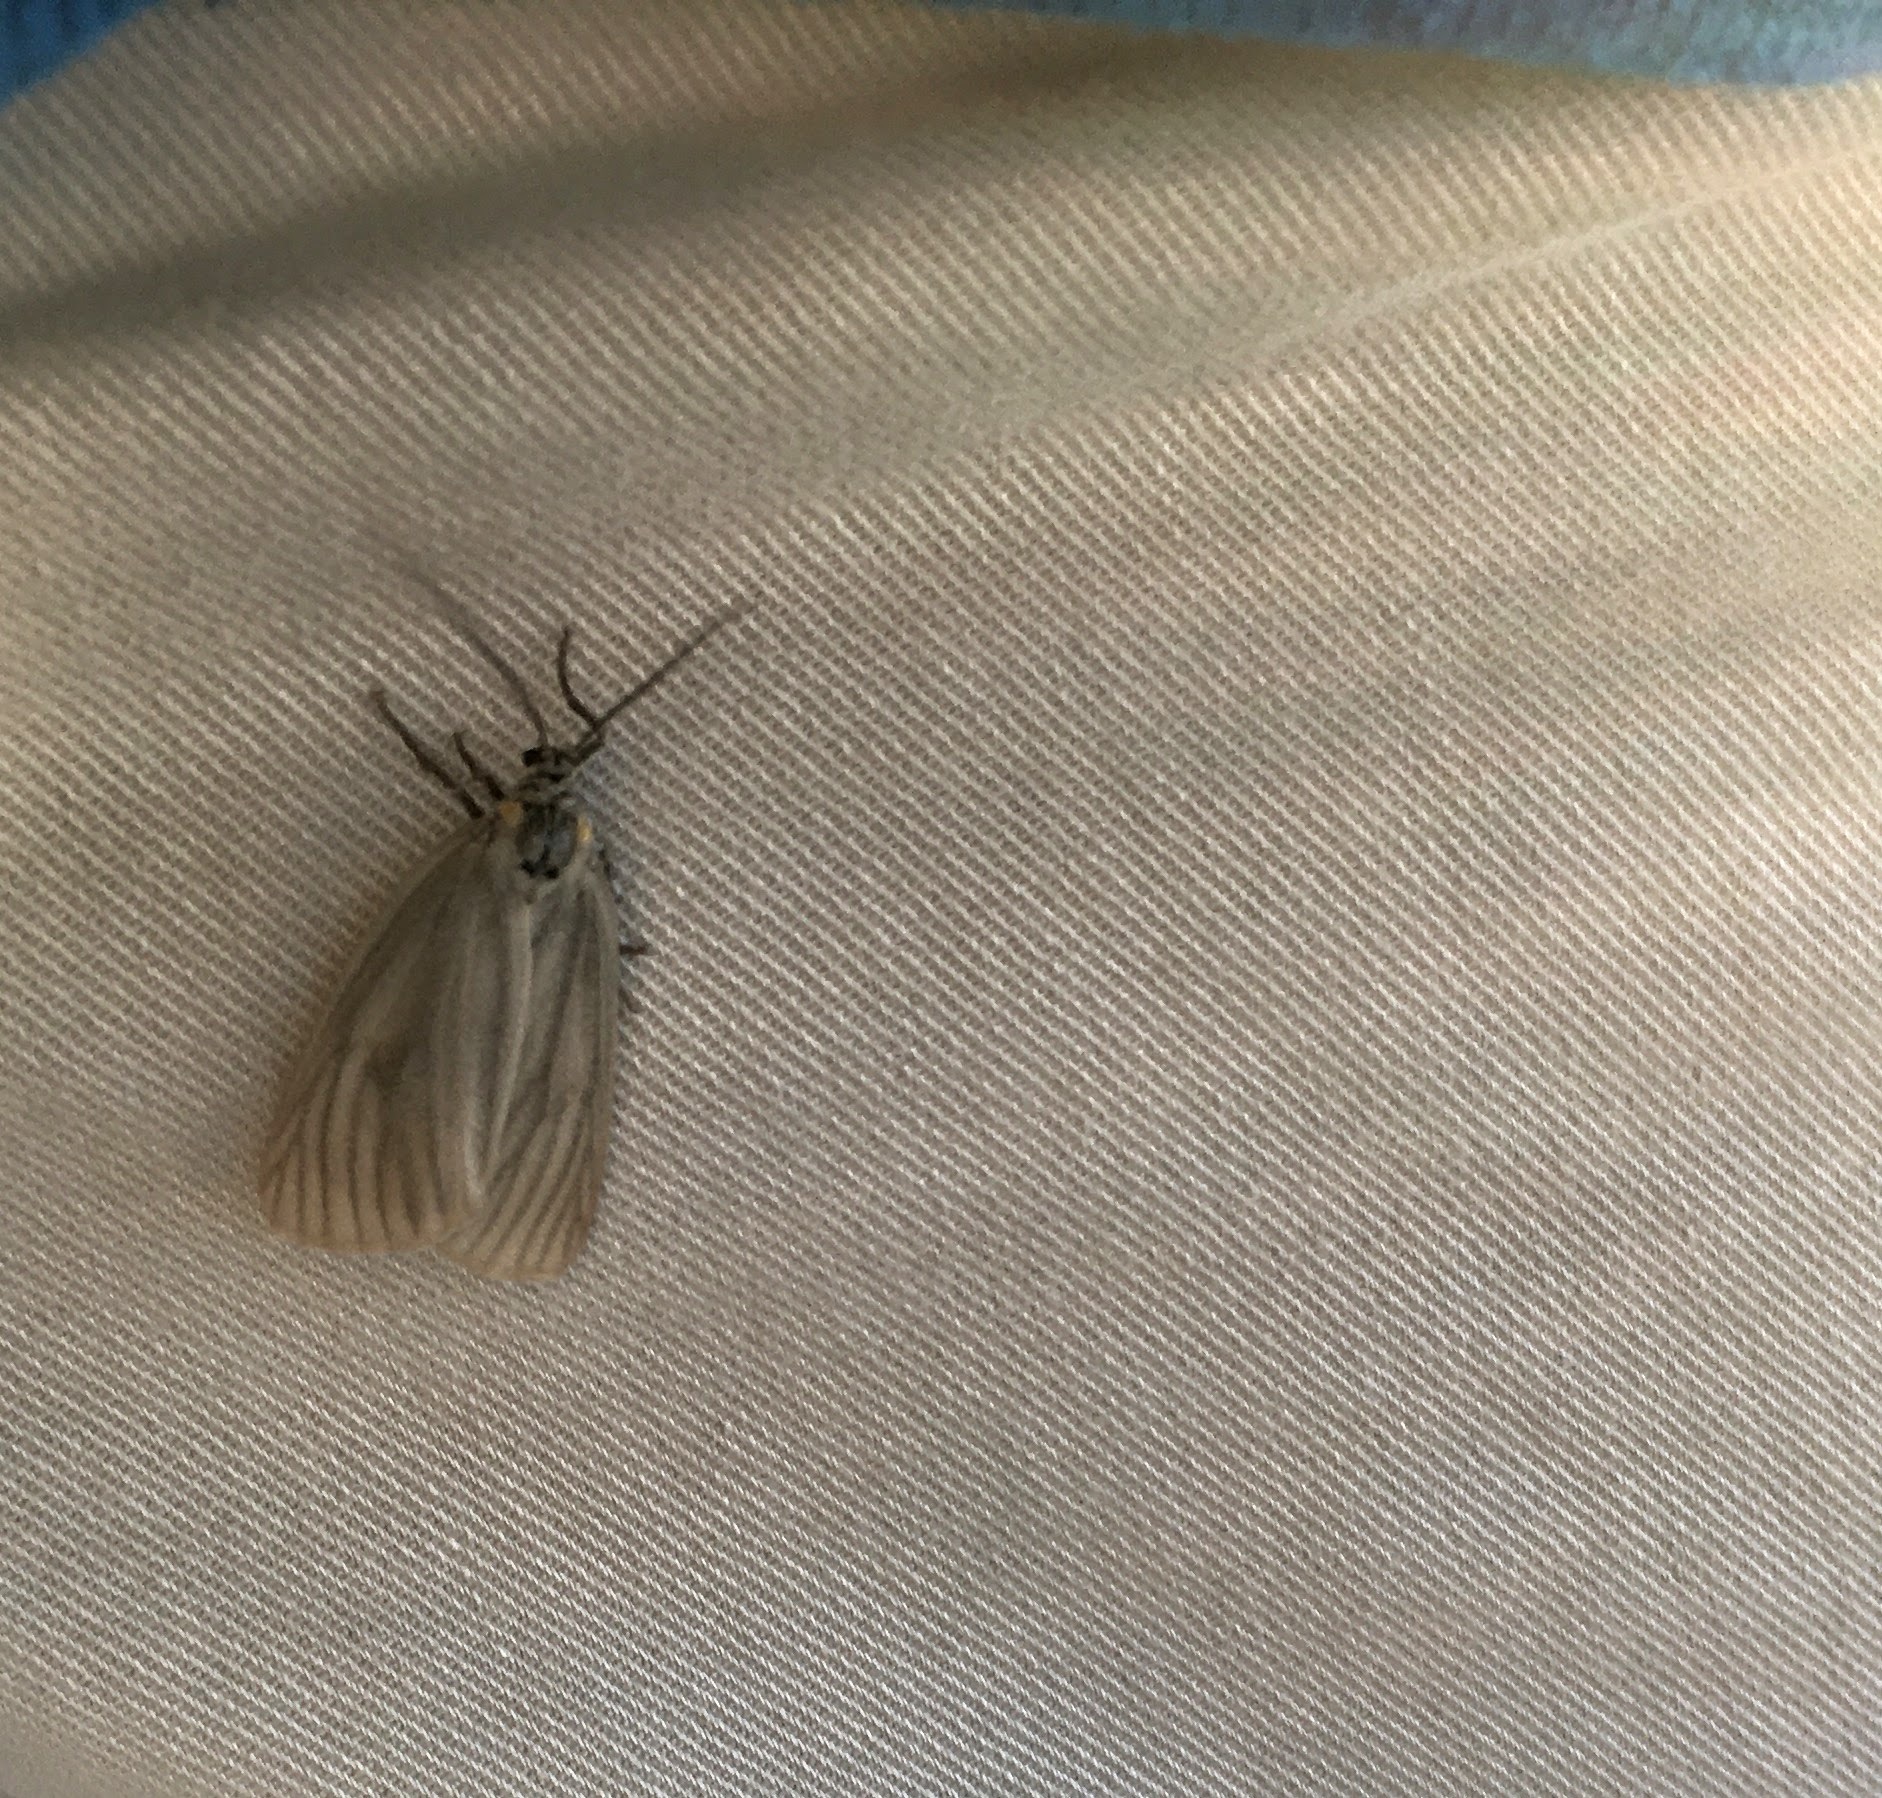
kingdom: Animalia
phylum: Arthropoda
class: Insecta
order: Lepidoptera
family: Notodontidae
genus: Phryganidia
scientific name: Phryganidia californica
